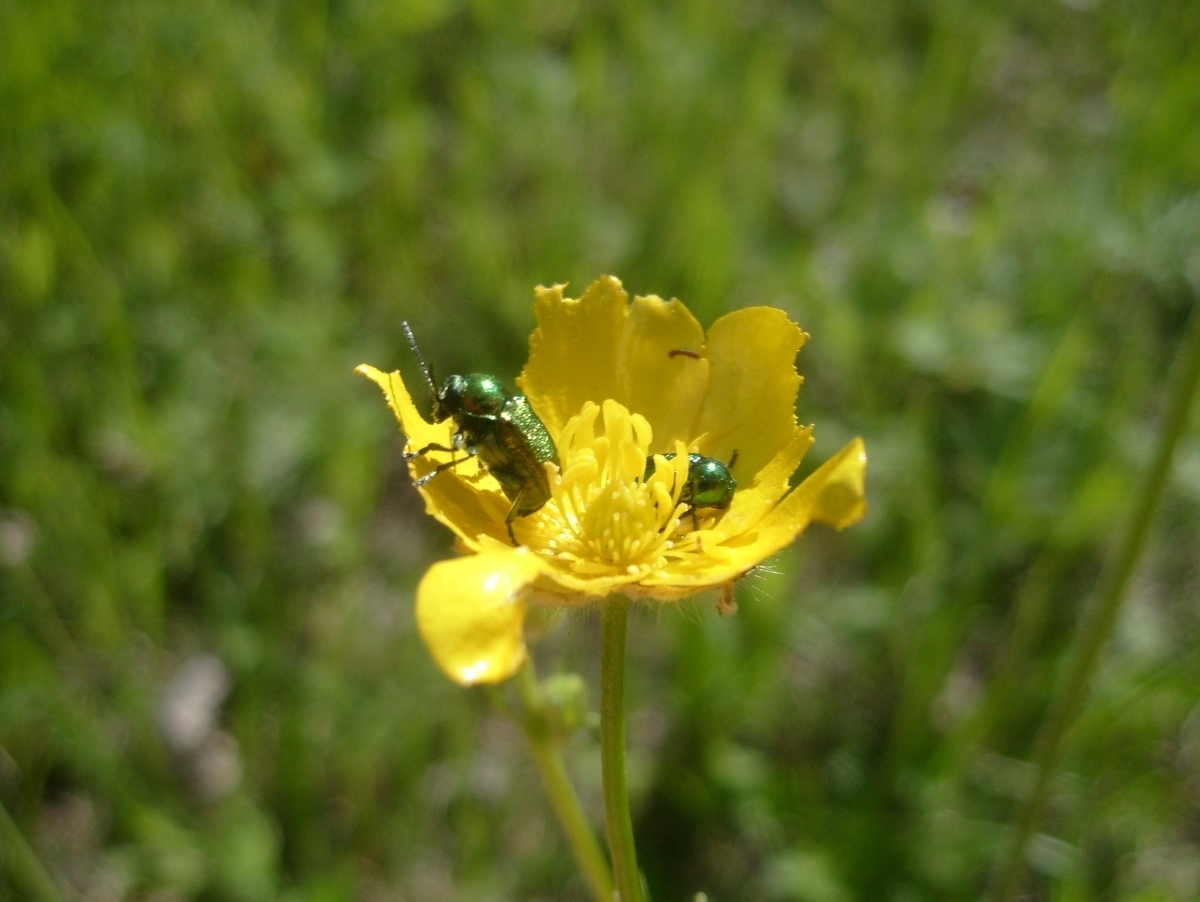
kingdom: Animalia
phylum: Arthropoda
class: Insecta
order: Coleoptera
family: Chrysomelidae
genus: Cryptocephalus
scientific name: Cryptocephalus sericeus
